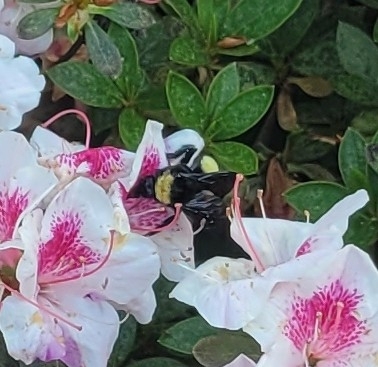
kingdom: Animalia
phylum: Arthropoda
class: Insecta
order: Hymenoptera
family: Apidae
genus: Bombus
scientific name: Bombus pensylvanicus
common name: Bumble bee
